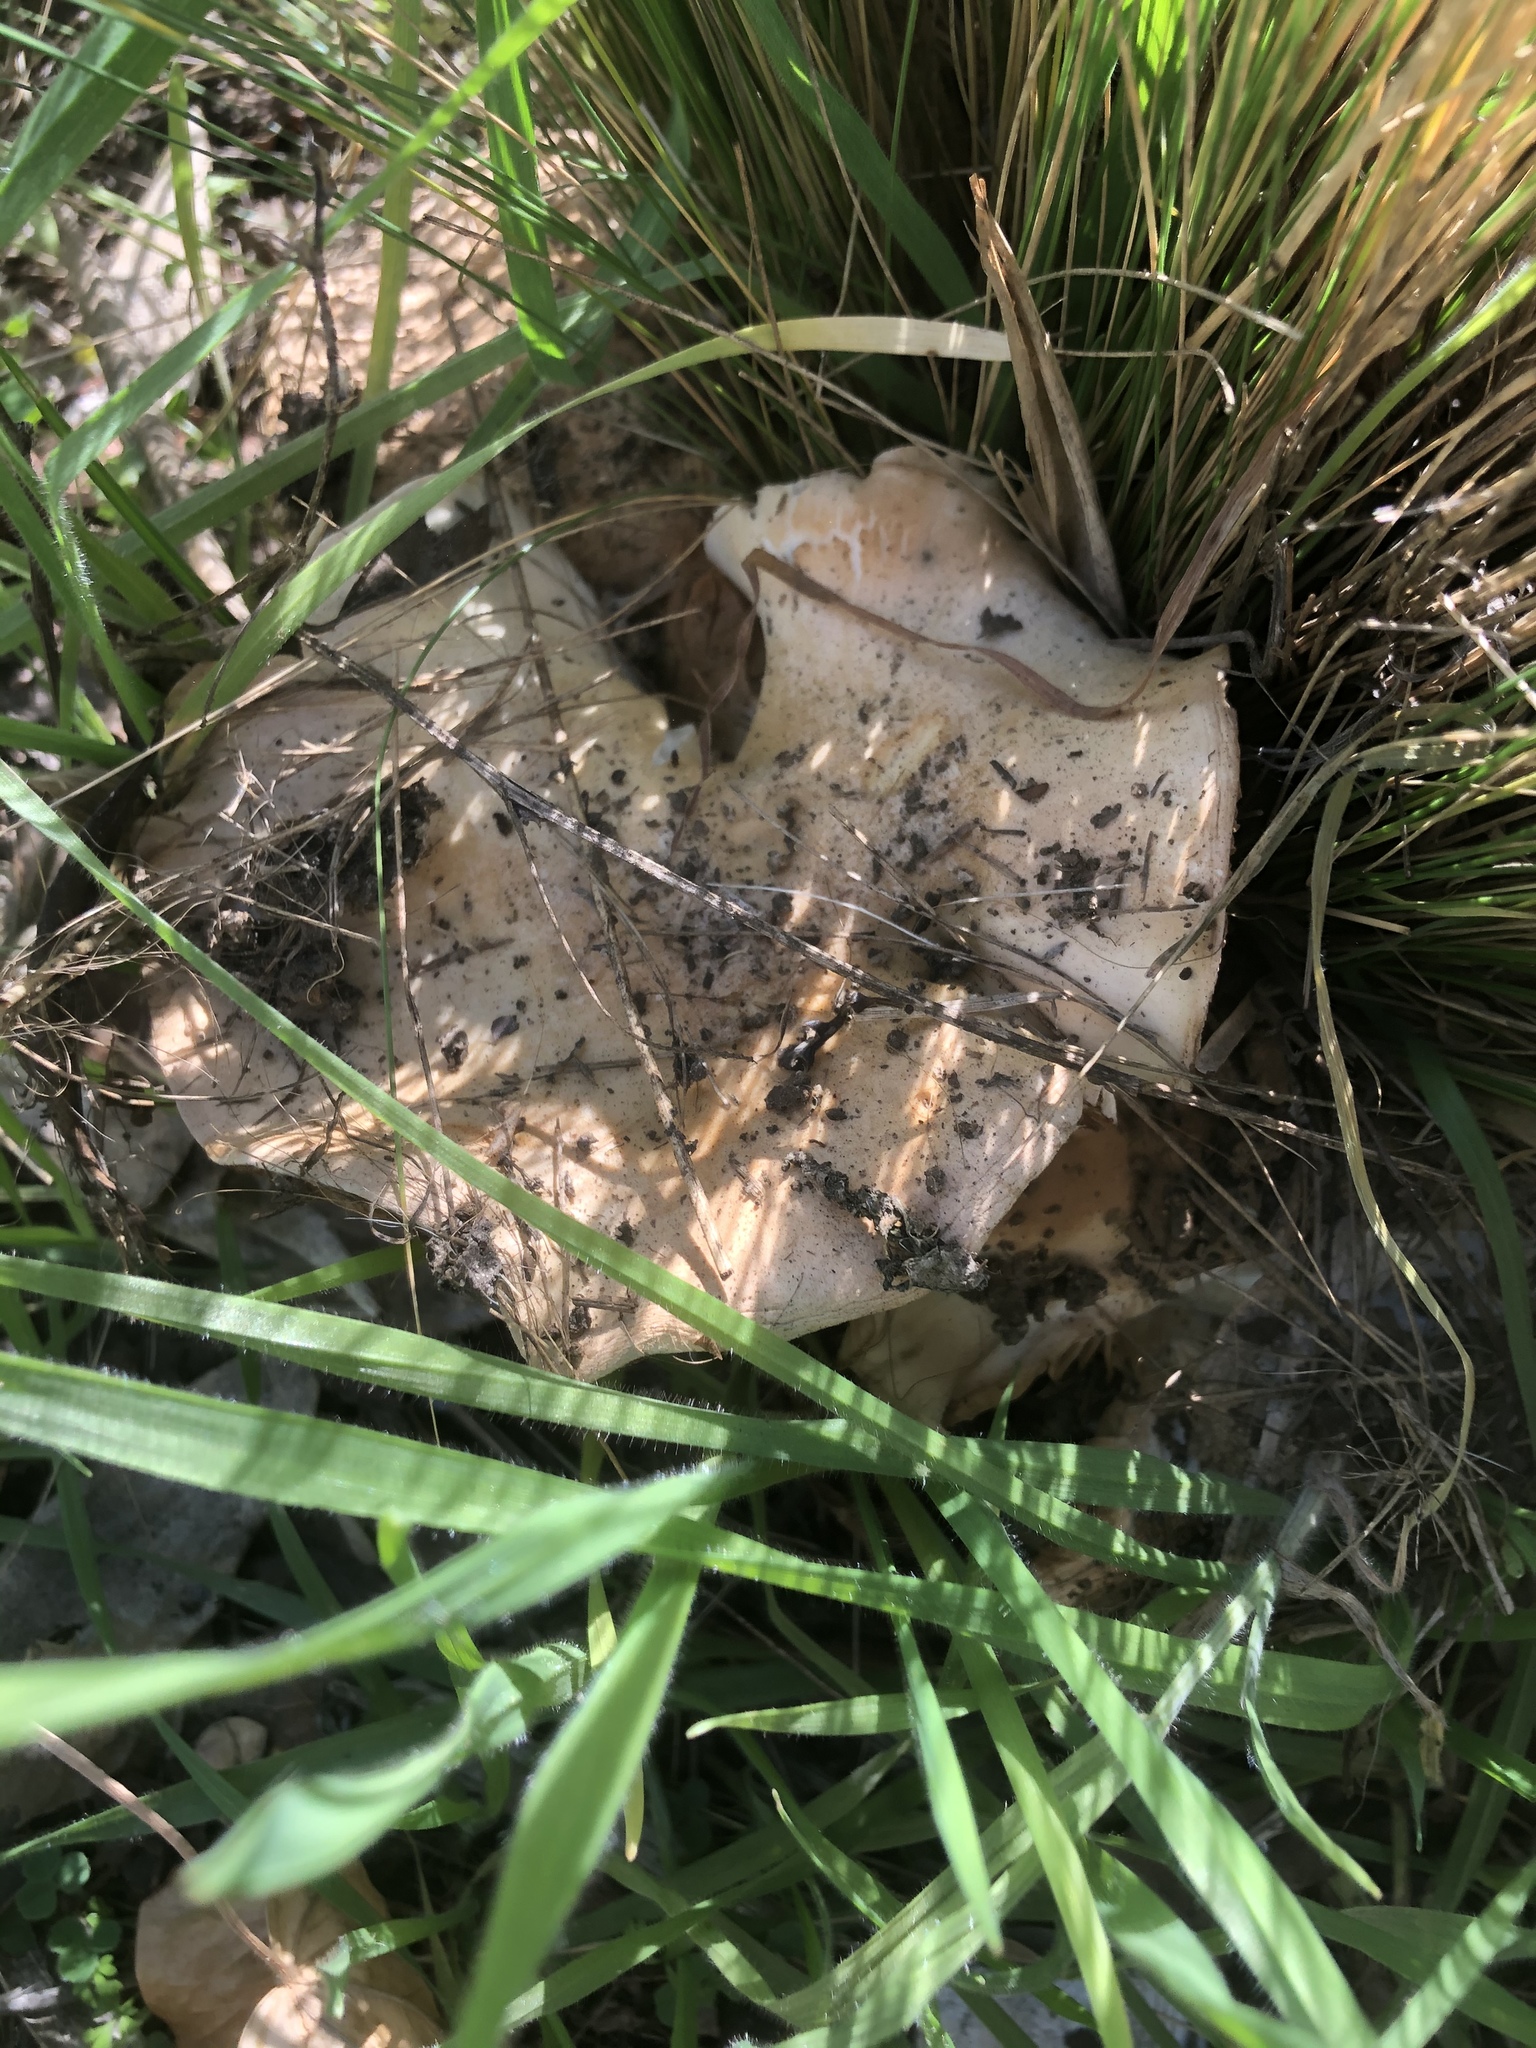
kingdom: Fungi
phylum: Basidiomycota
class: Agaricomycetes
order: Agaricales
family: Entolomataceae
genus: Entoloma
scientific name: Entoloma ferruginans
